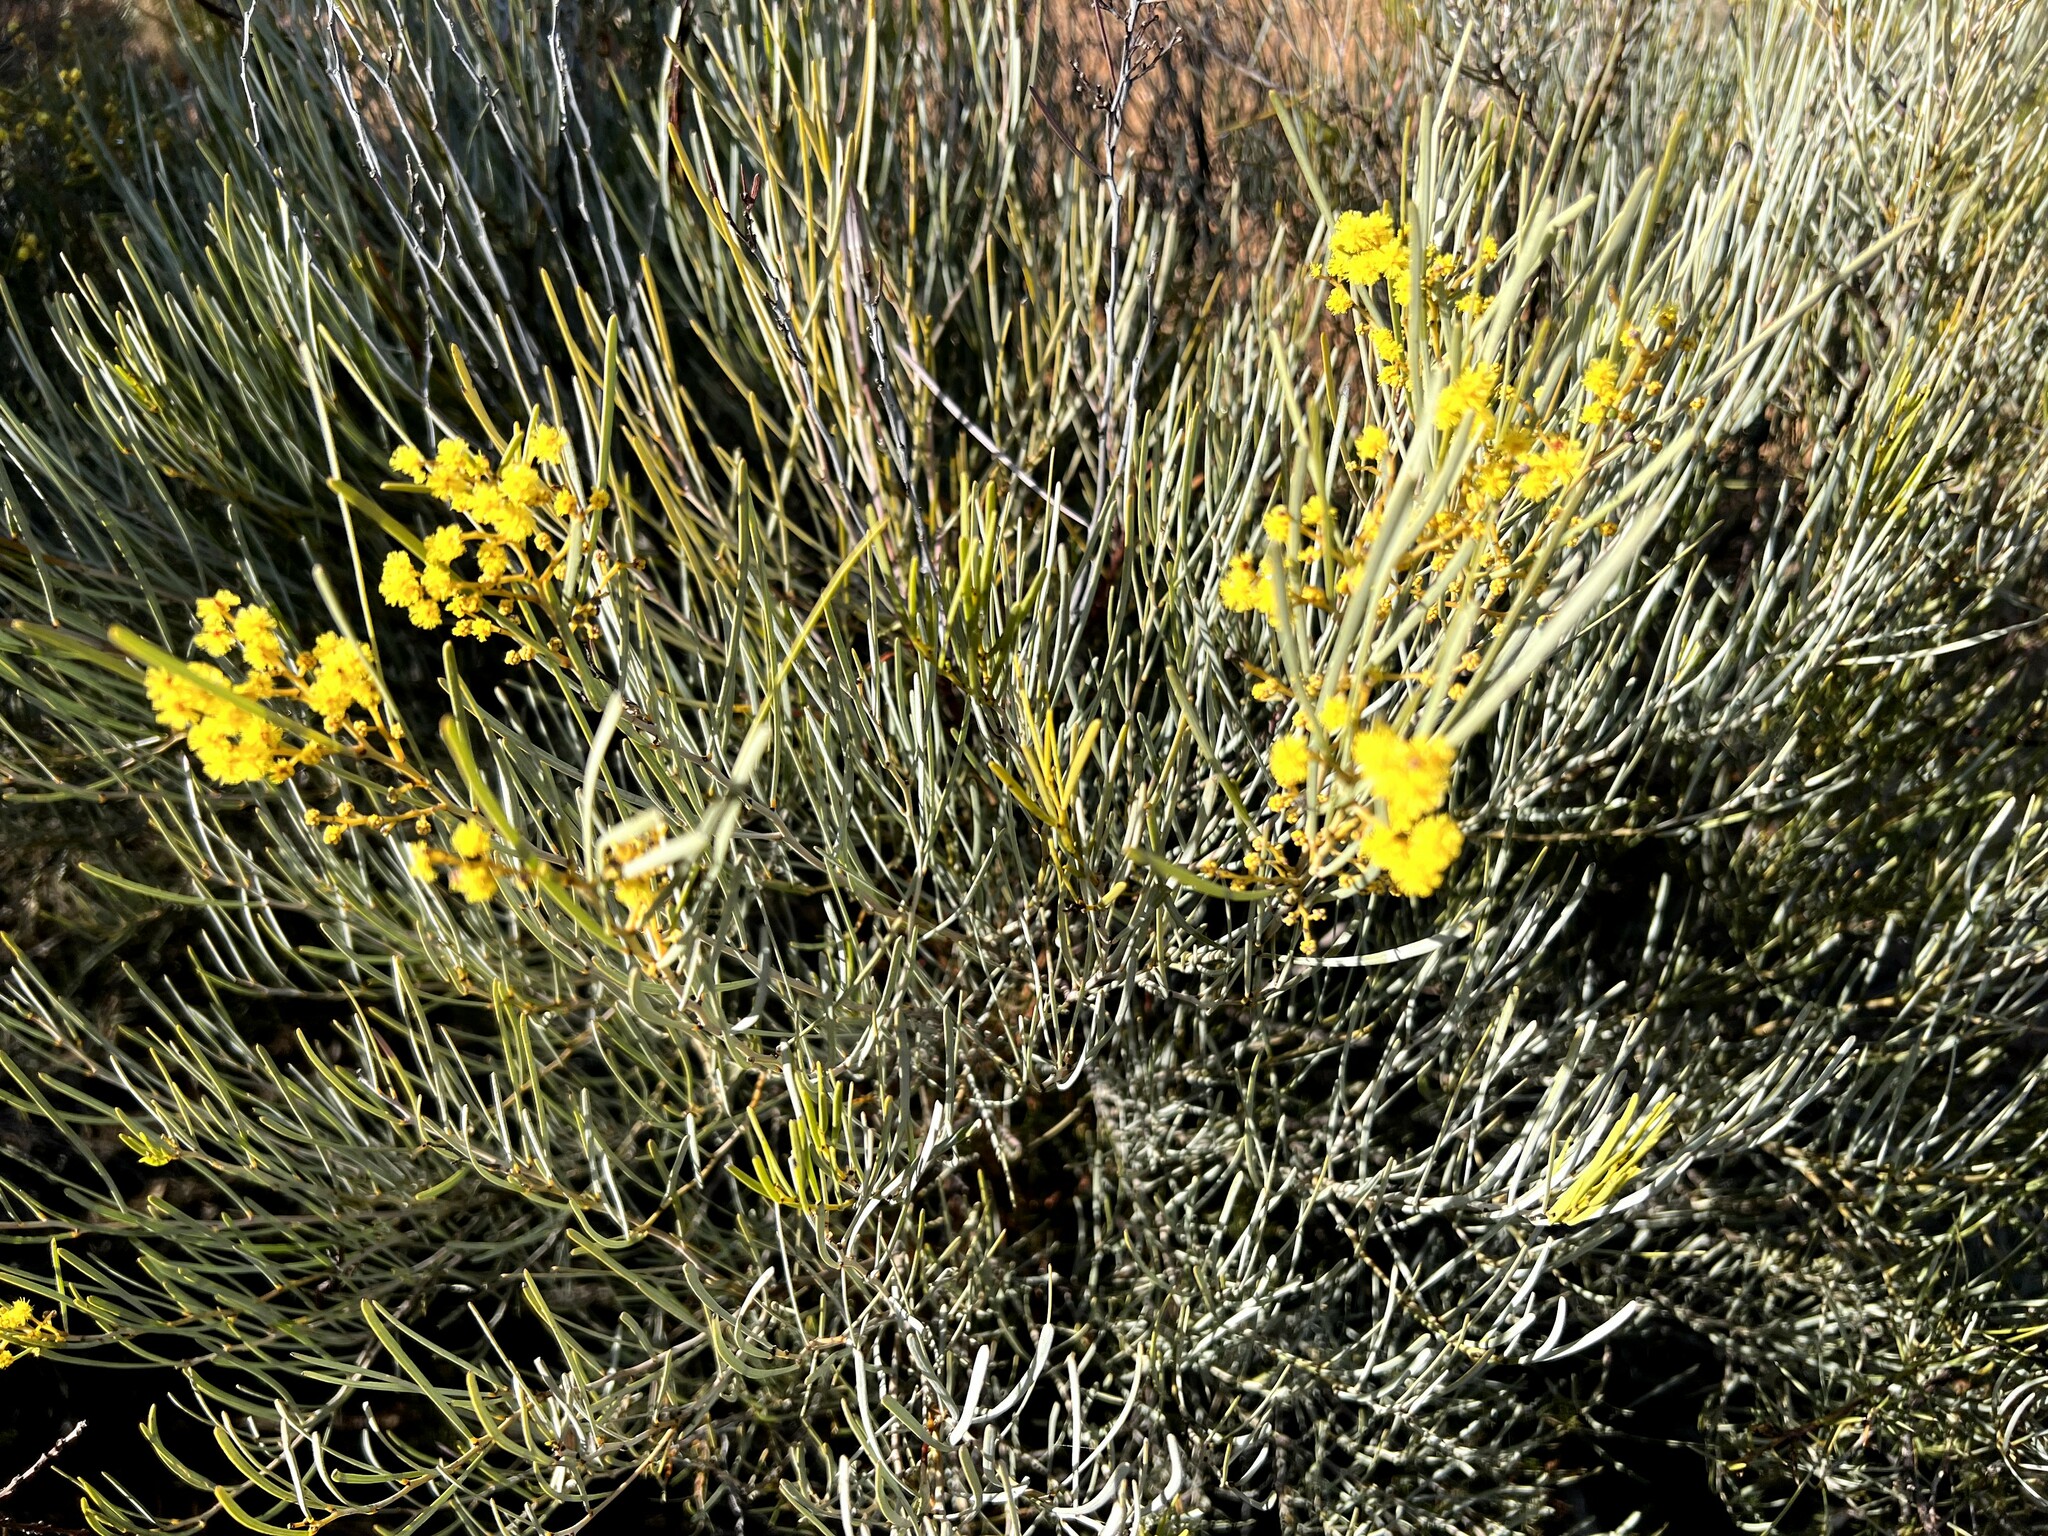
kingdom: Plantae
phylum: Tracheophyta
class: Magnoliopsida
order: Fabales
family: Fabaceae
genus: Acacia
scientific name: Acacia williamsonii
